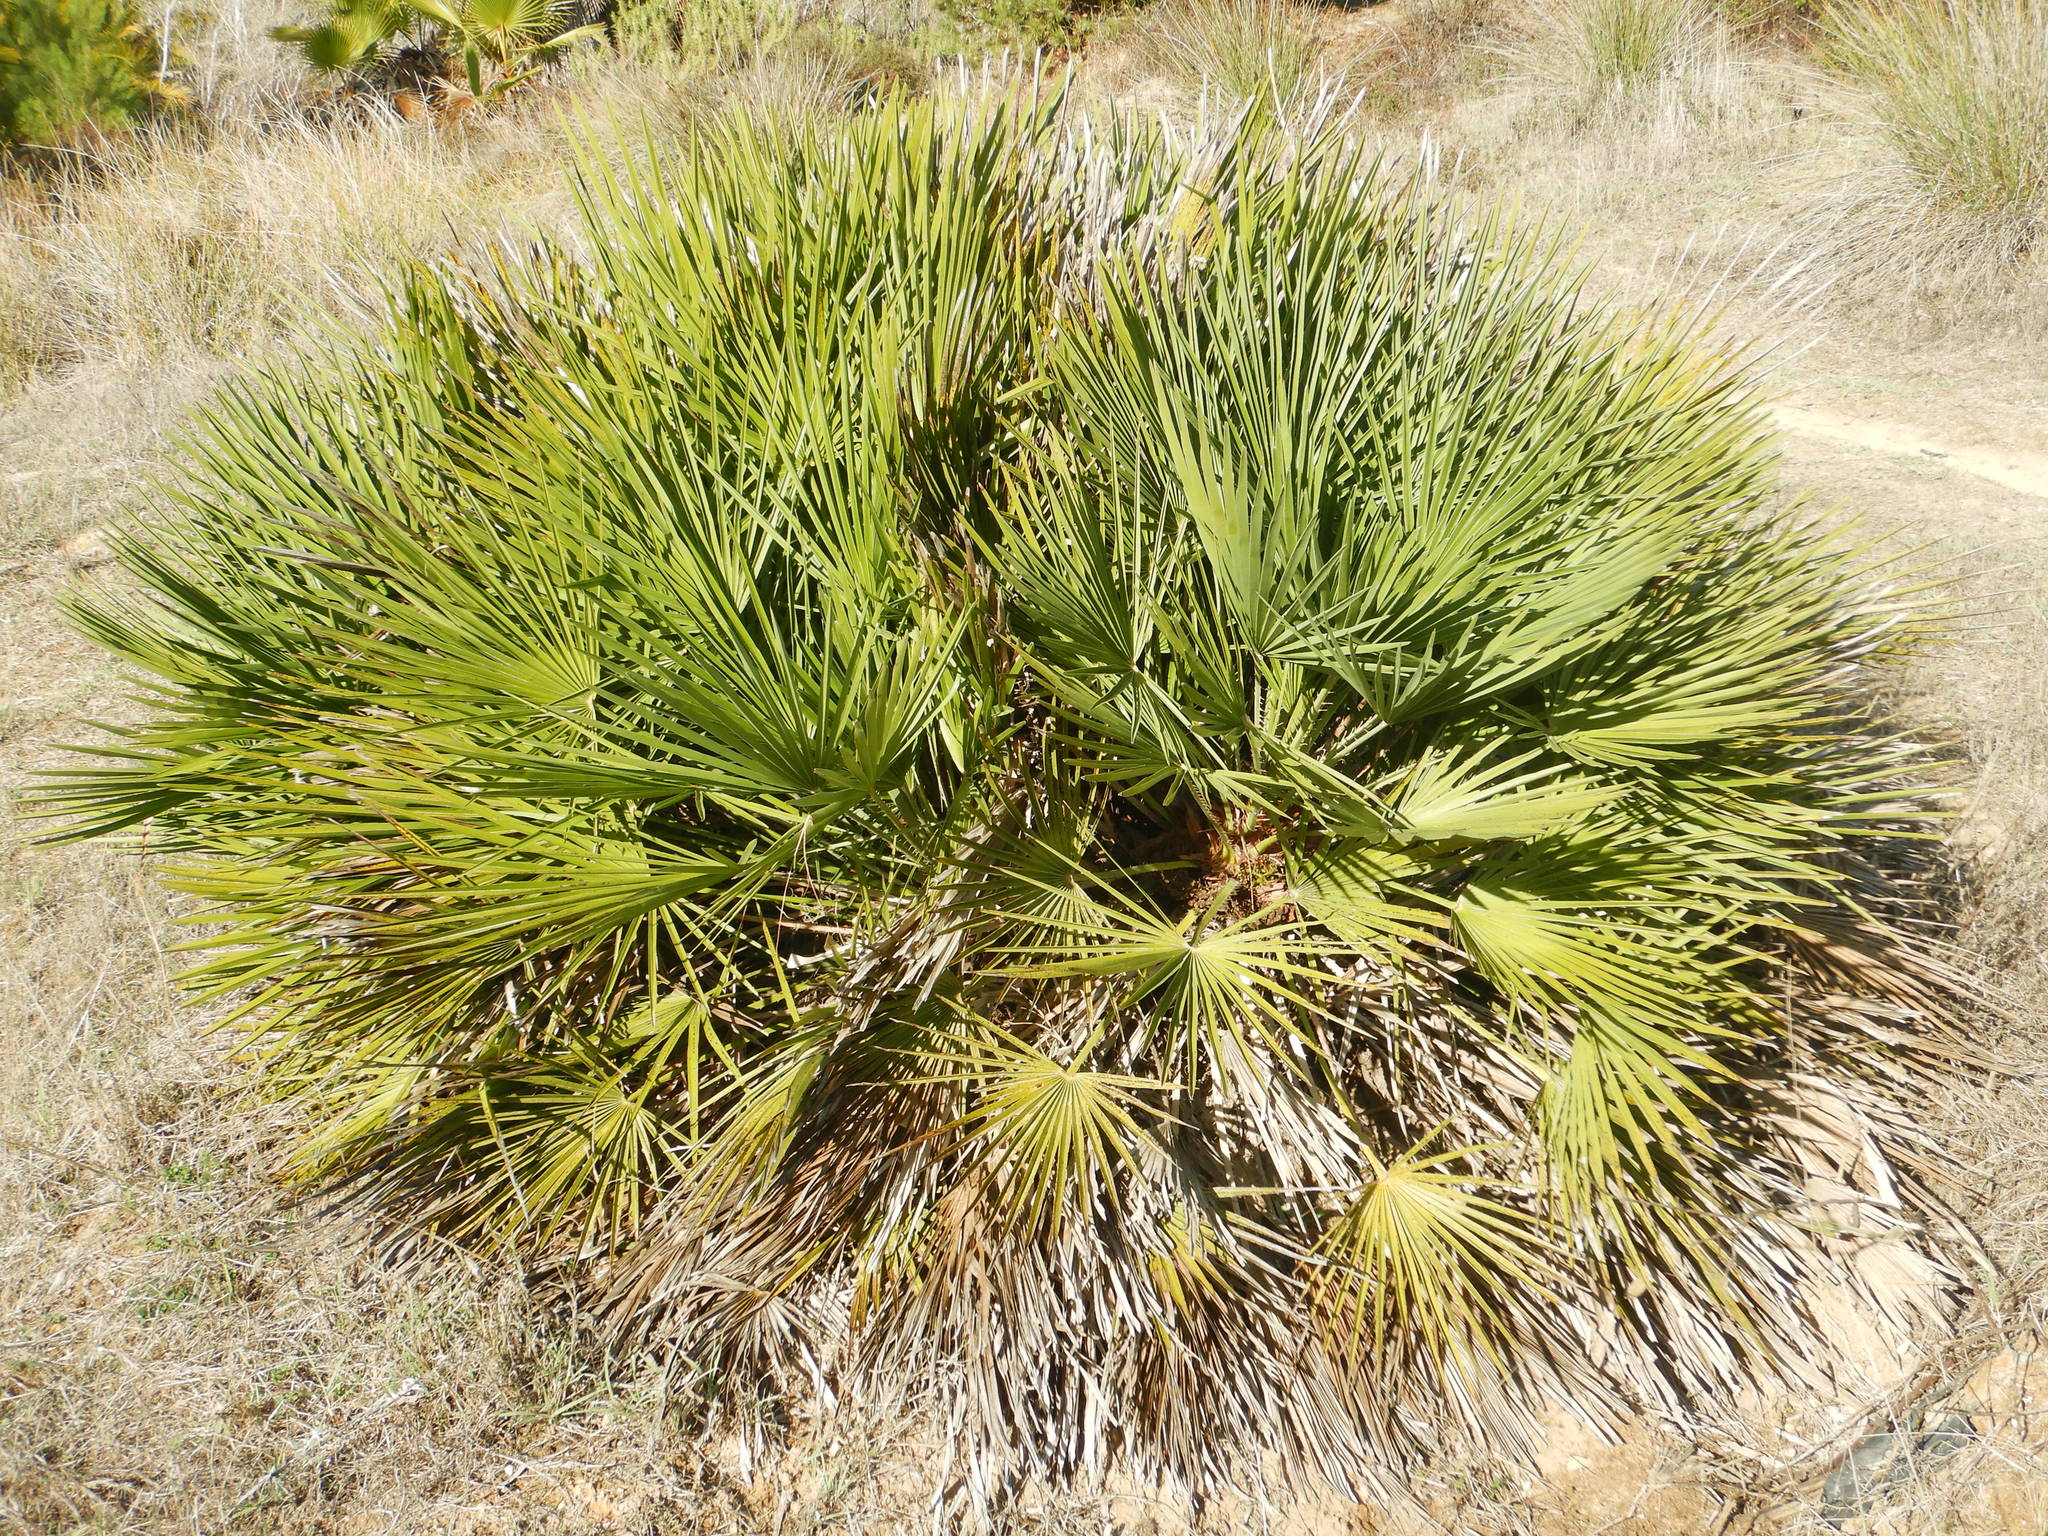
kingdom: Plantae
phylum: Tracheophyta
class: Liliopsida
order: Arecales
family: Arecaceae
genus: Chamaerops
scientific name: Chamaerops humilis
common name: Dwarf fan palm
